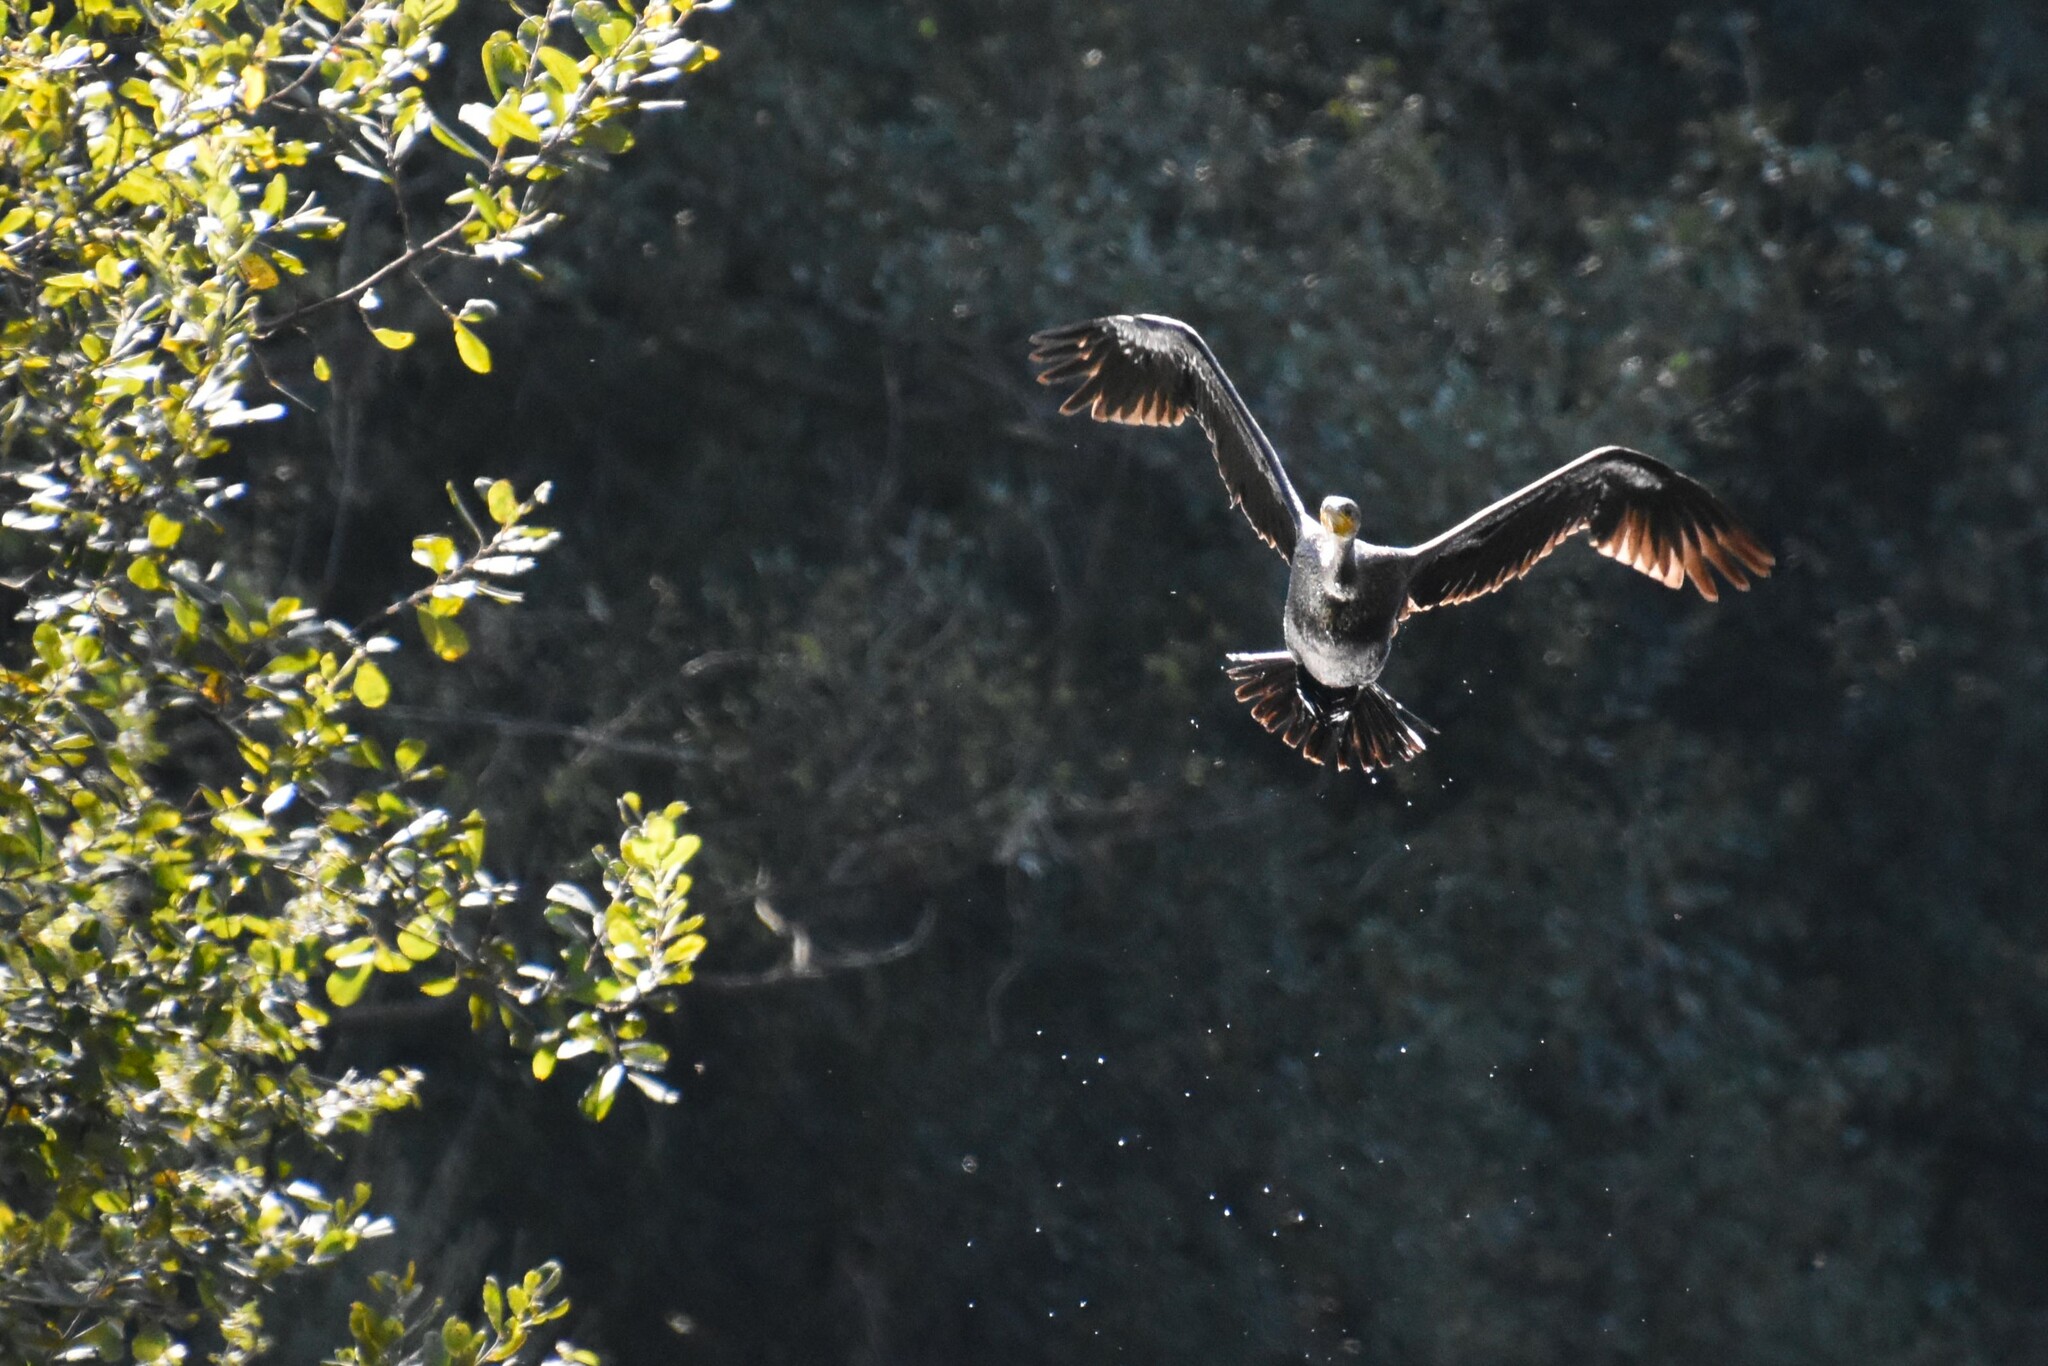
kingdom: Animalia
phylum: Chordata
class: Aves
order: Suliformes
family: Phalacrocoracidae
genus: Phalacrocorax
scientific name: Phalacrocorax carbo
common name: Great cormorant
